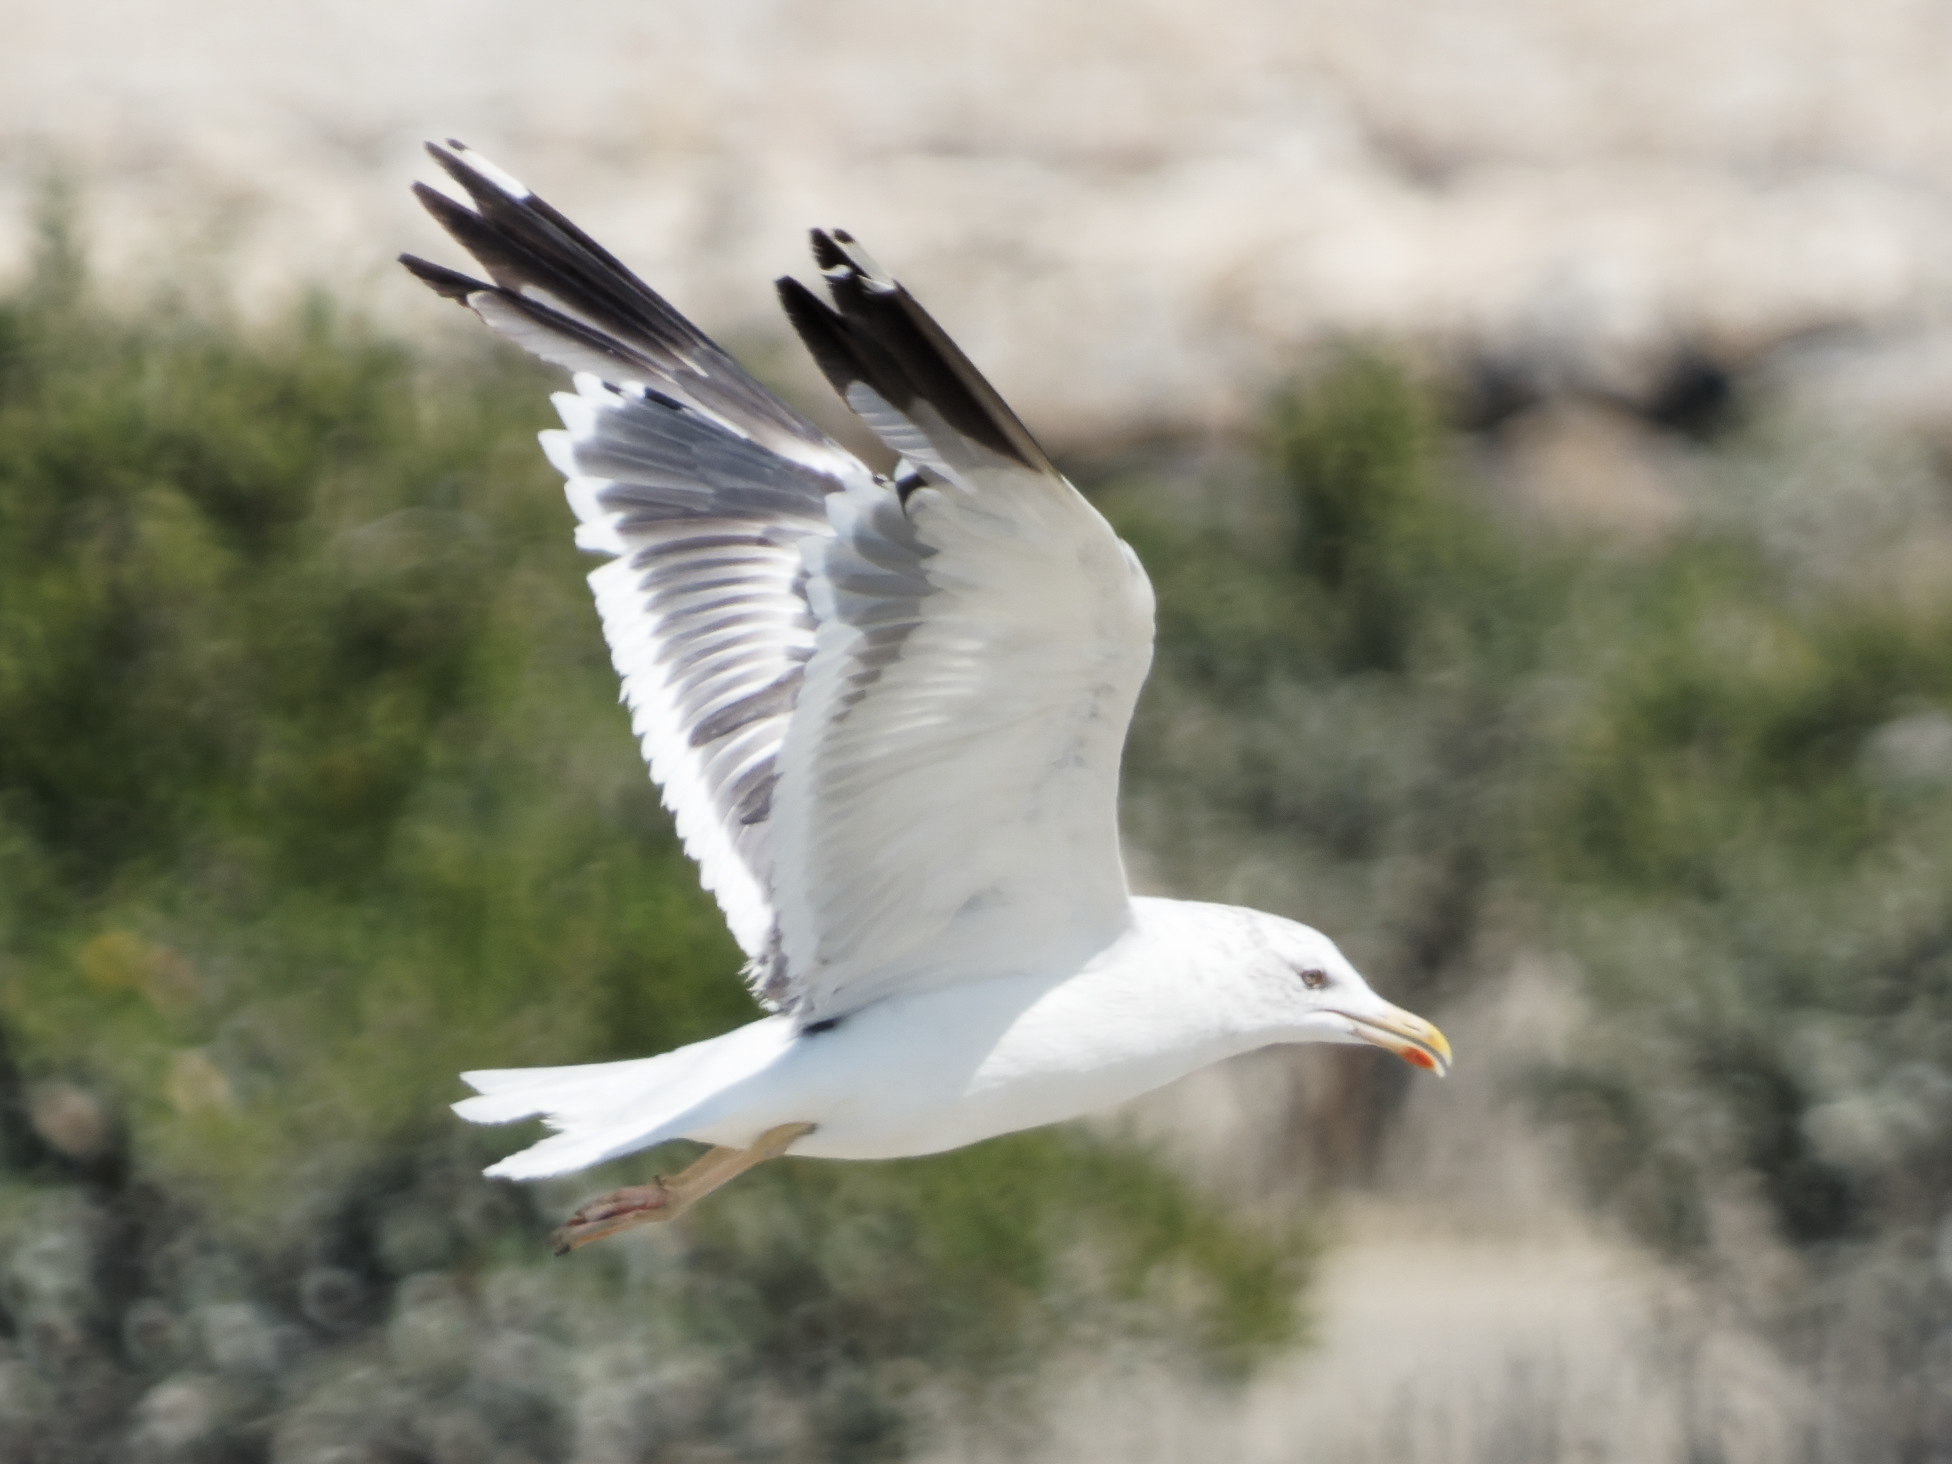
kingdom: Animalia
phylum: Chordata
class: Aves
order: Charadriiformes
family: Laridae
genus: Larus
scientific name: Larus fuscus
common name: Lesser black-backed gull
